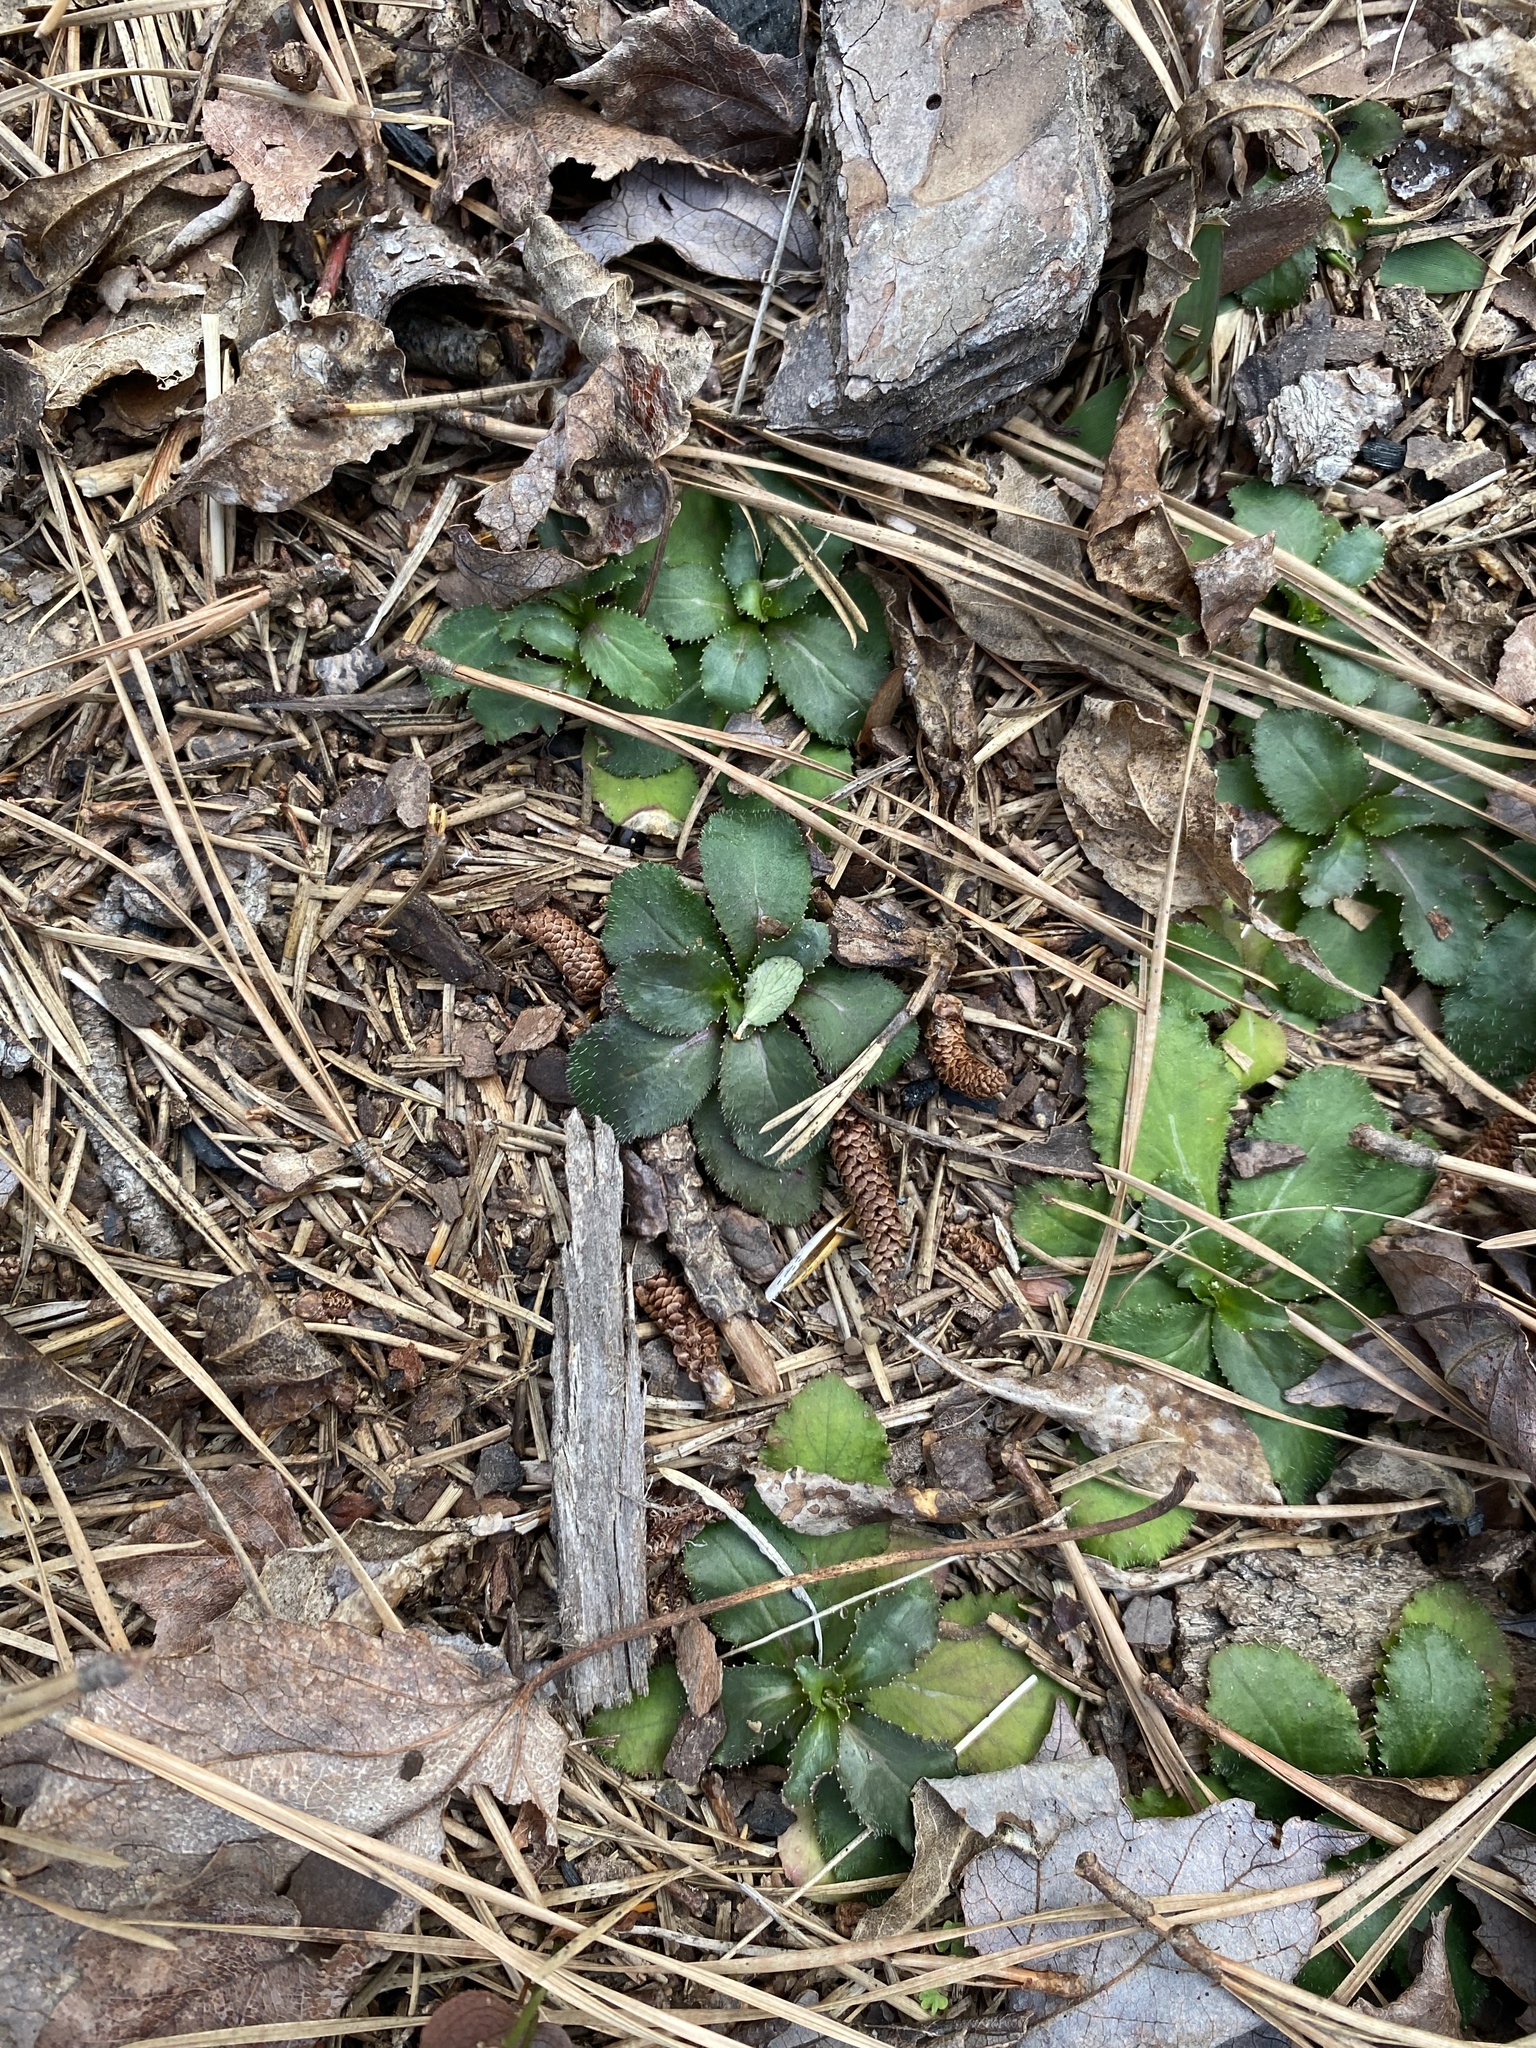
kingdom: Plantae
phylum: Tracheophyta
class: Magnoliopsida
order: Asterales
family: Campanulaceae
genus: Lobelia
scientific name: Lobelia inflata
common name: Indian tobacco
